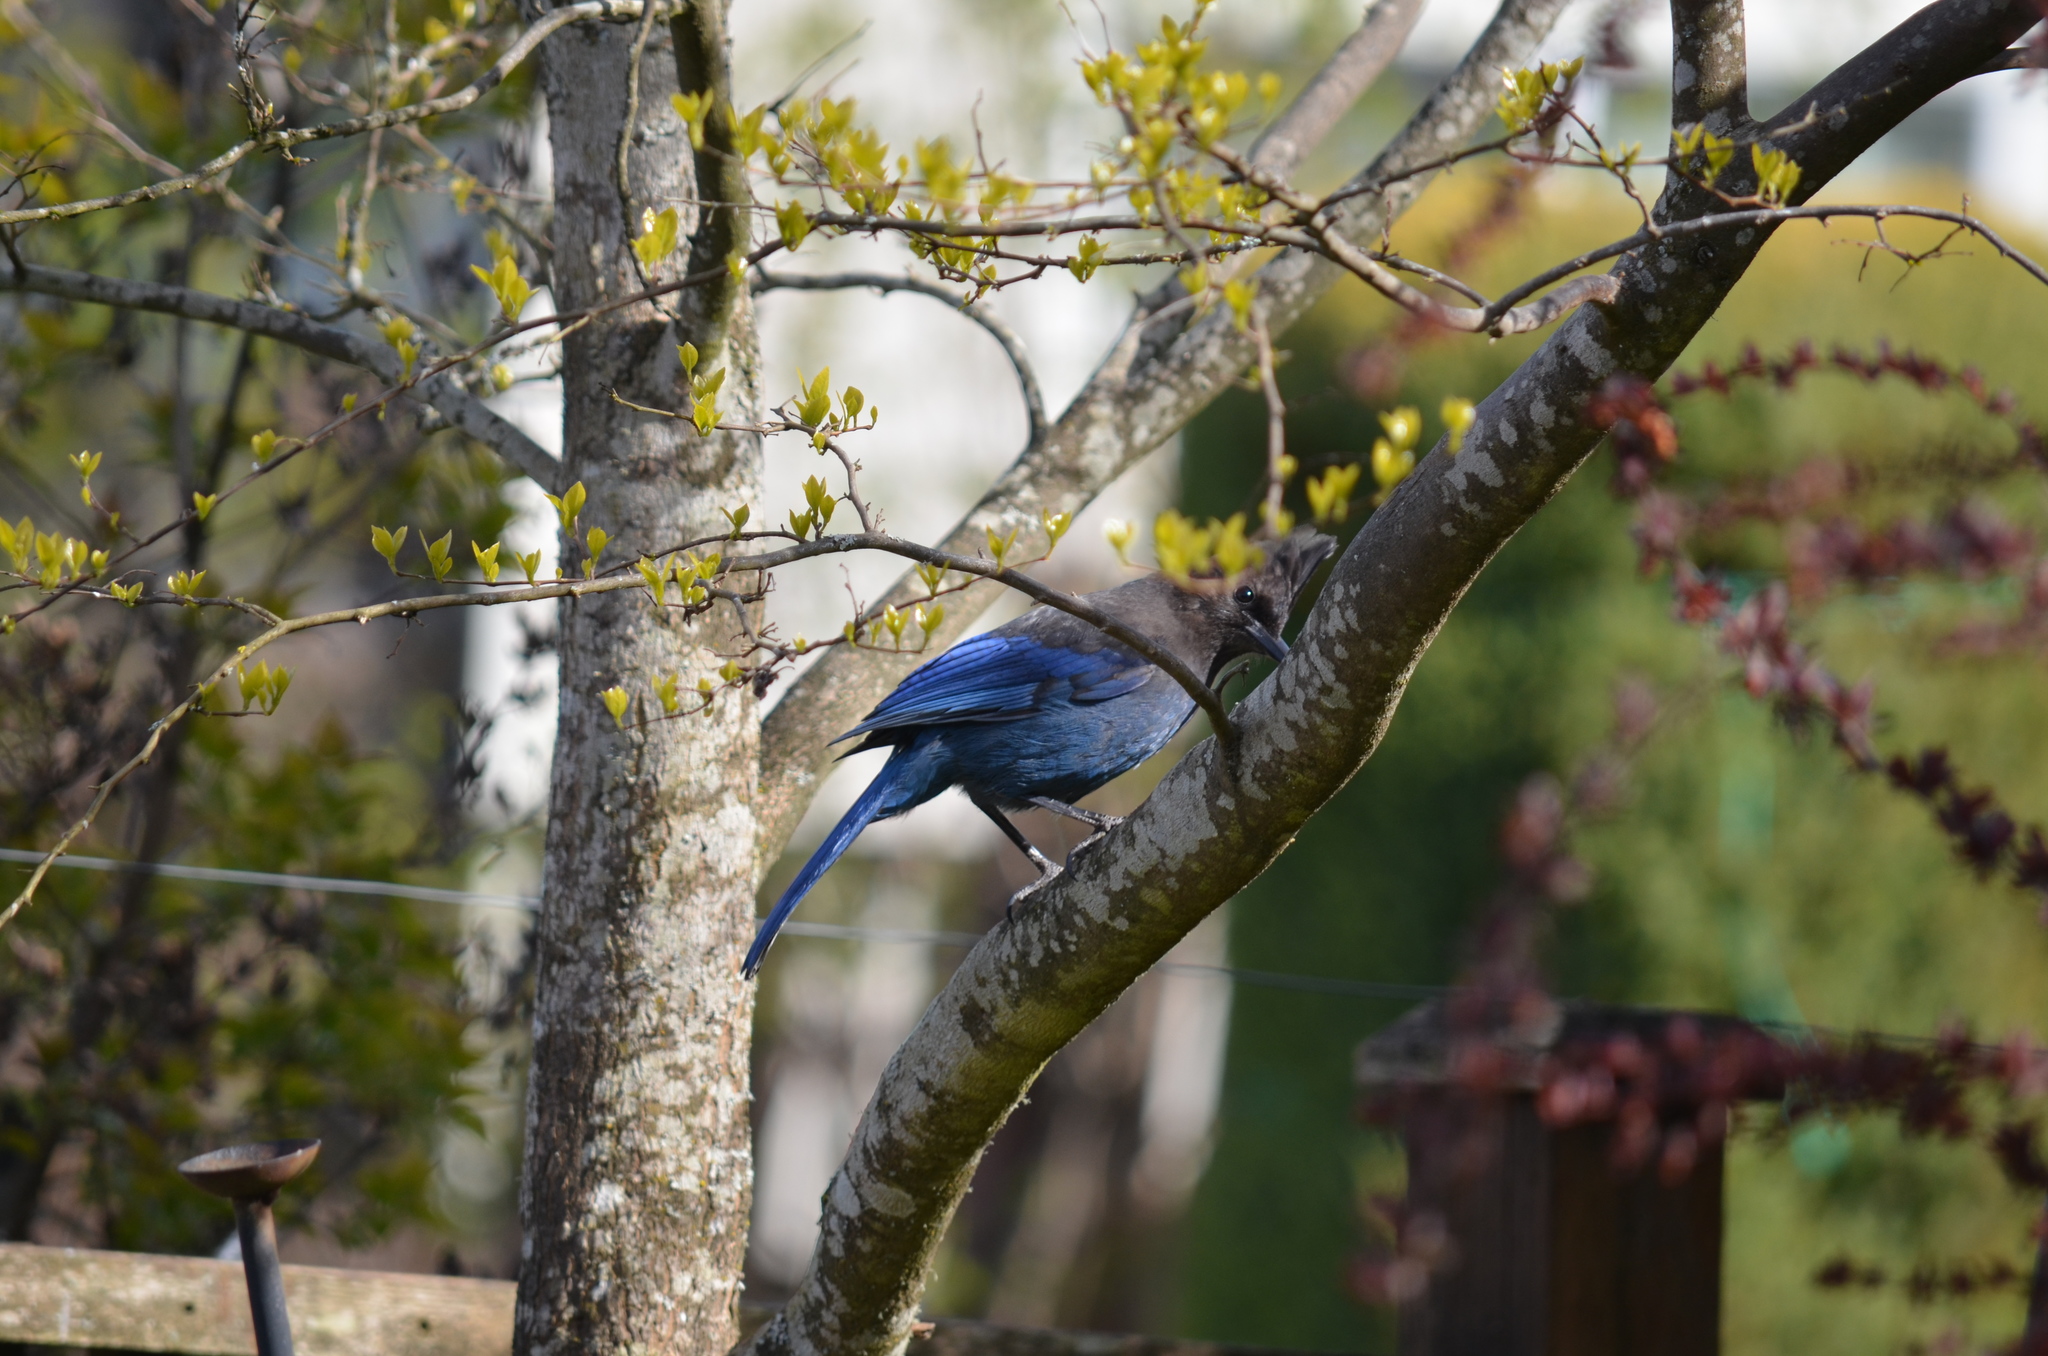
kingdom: Animalia
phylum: Chordata
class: Aves
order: Passeriformes
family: Corvidae
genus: Cyanocitta
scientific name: Cyanocitta stelleri
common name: Steller's jay
